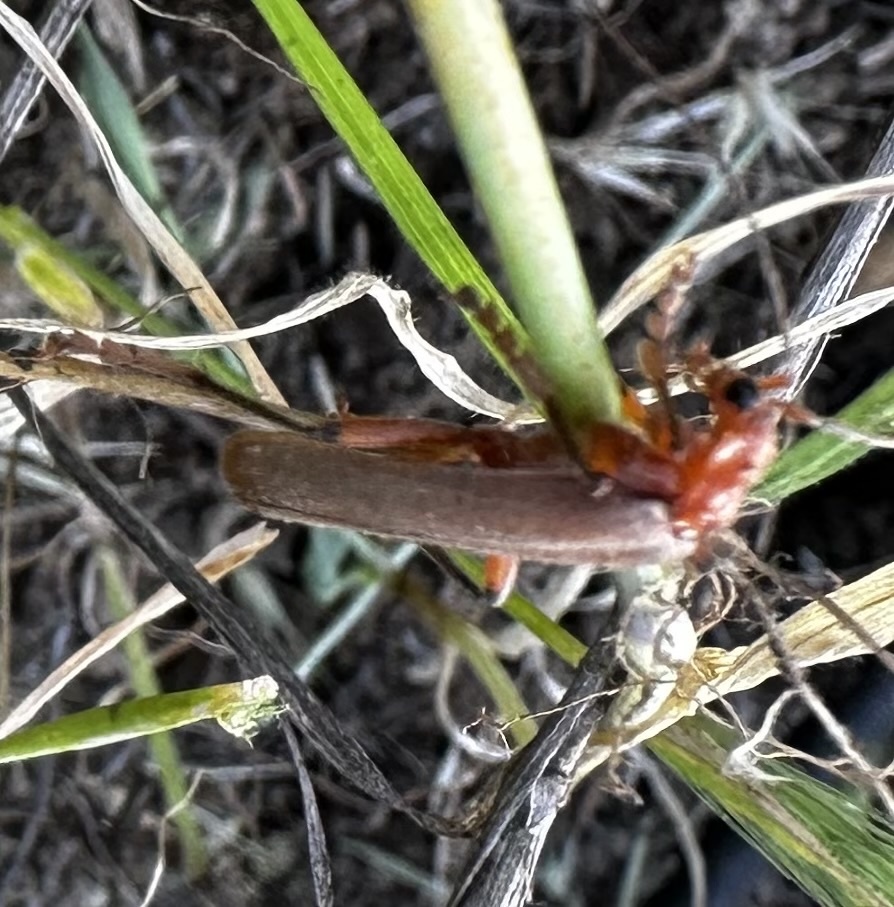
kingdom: Animalia
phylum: Arthropoda
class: Insecta
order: Coleoptera
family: Cantharidae
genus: Pacificanthia
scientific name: Pacificanthia consors
